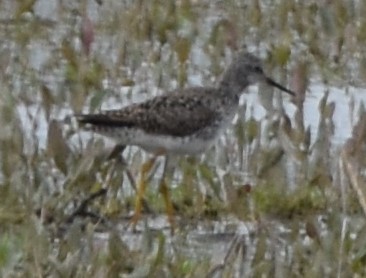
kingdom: Animalia
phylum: Chordata
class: Aves
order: Charadriiformes
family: Scolopacidae
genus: Tringa
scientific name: Tringa flavipes
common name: Lesser yellowlegs
